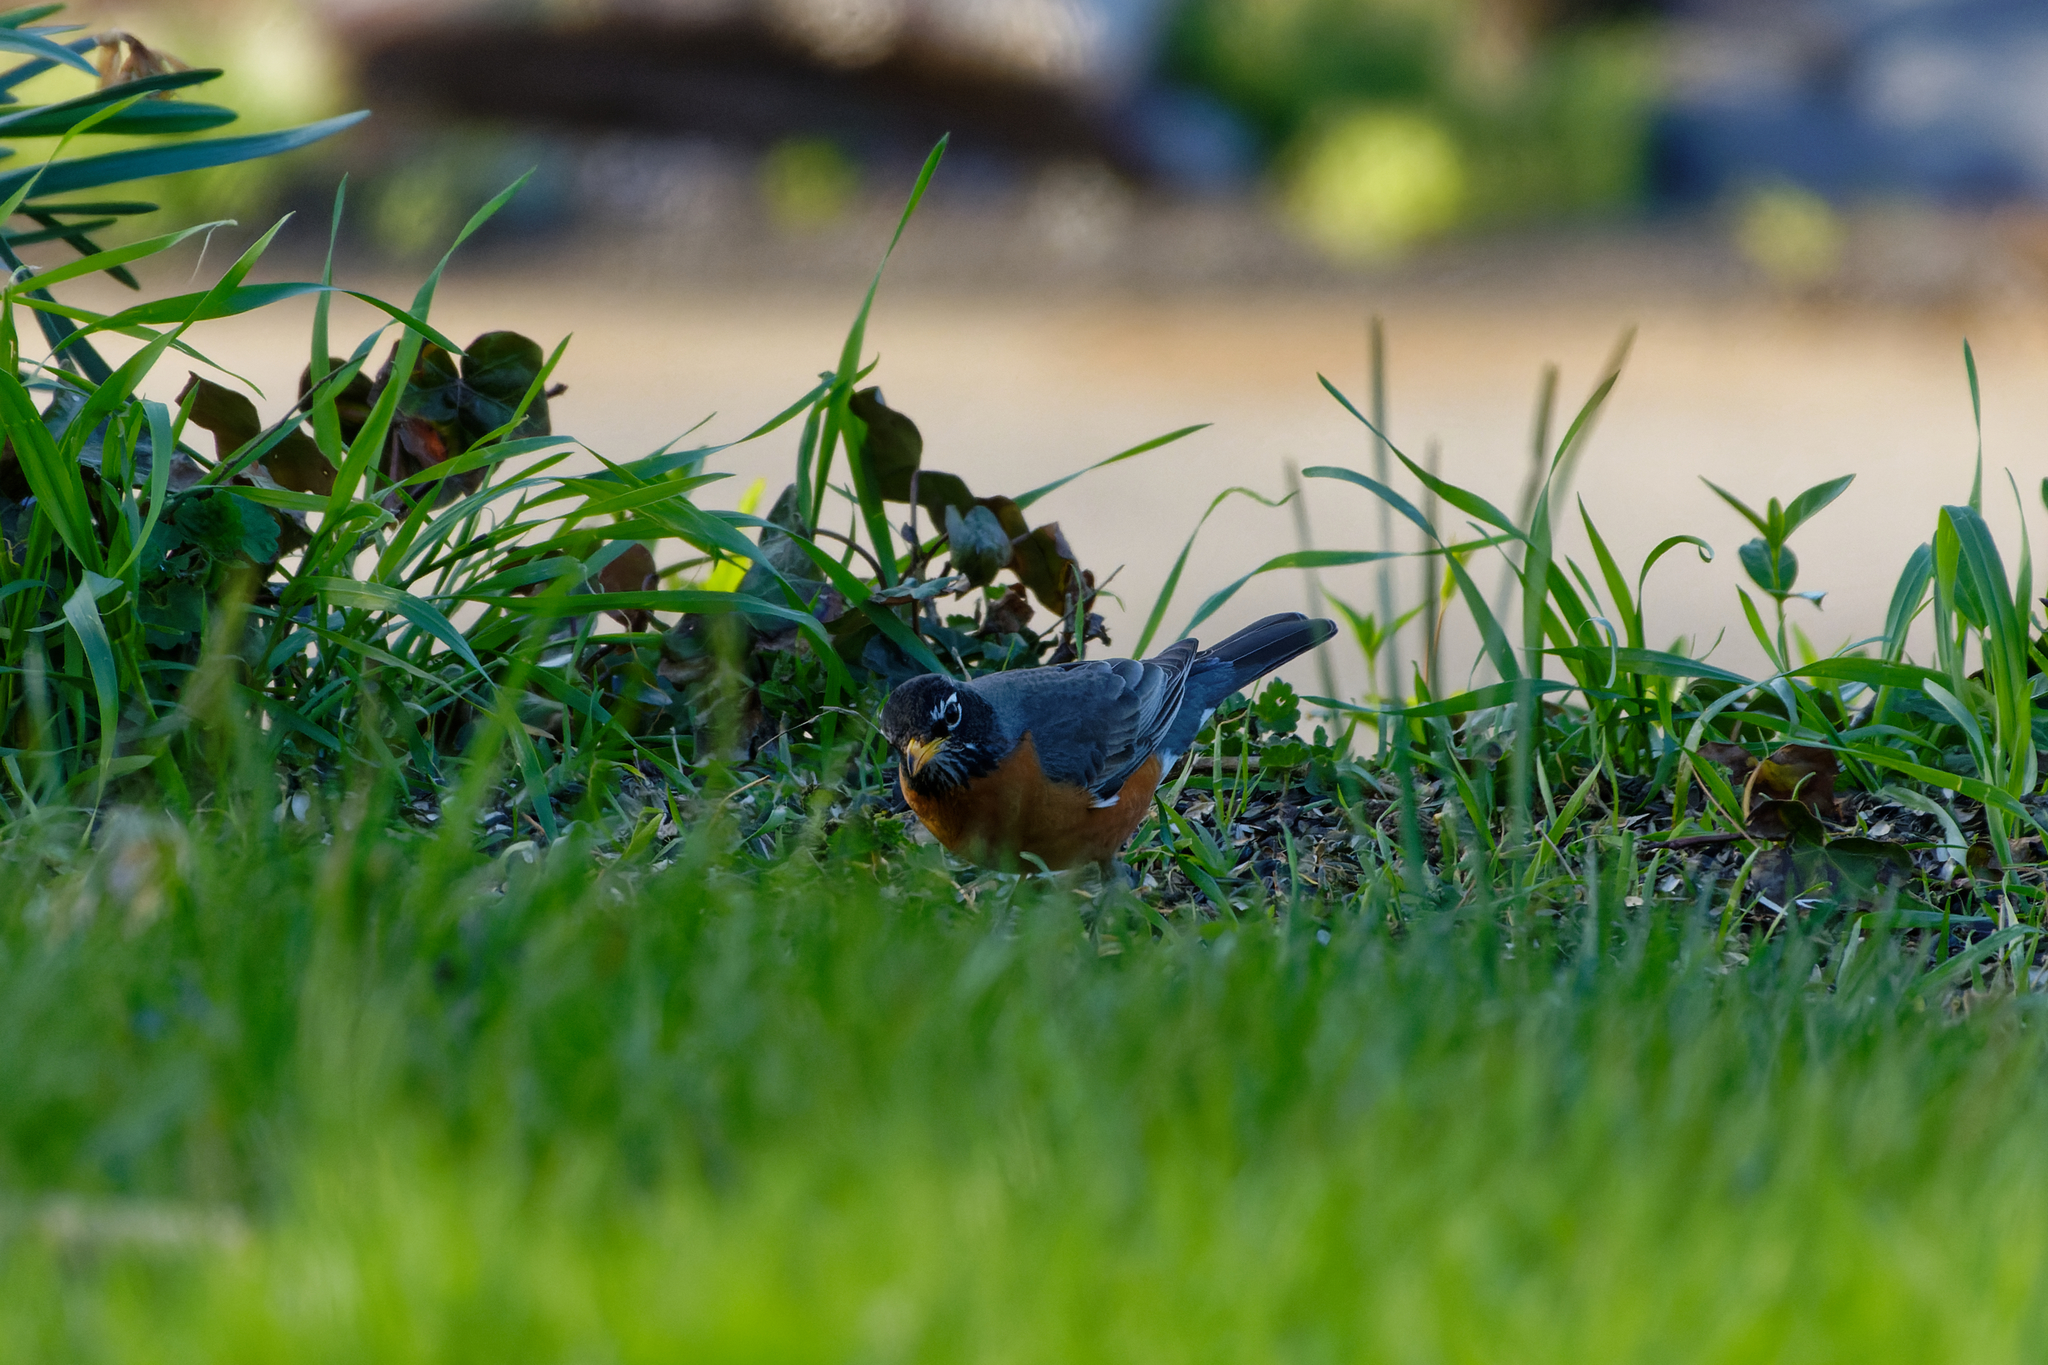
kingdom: Animalia
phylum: Chordata
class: Aves
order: Passeriformes
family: Turdidae
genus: Turdus
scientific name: Turdus migratorius
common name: American robin
